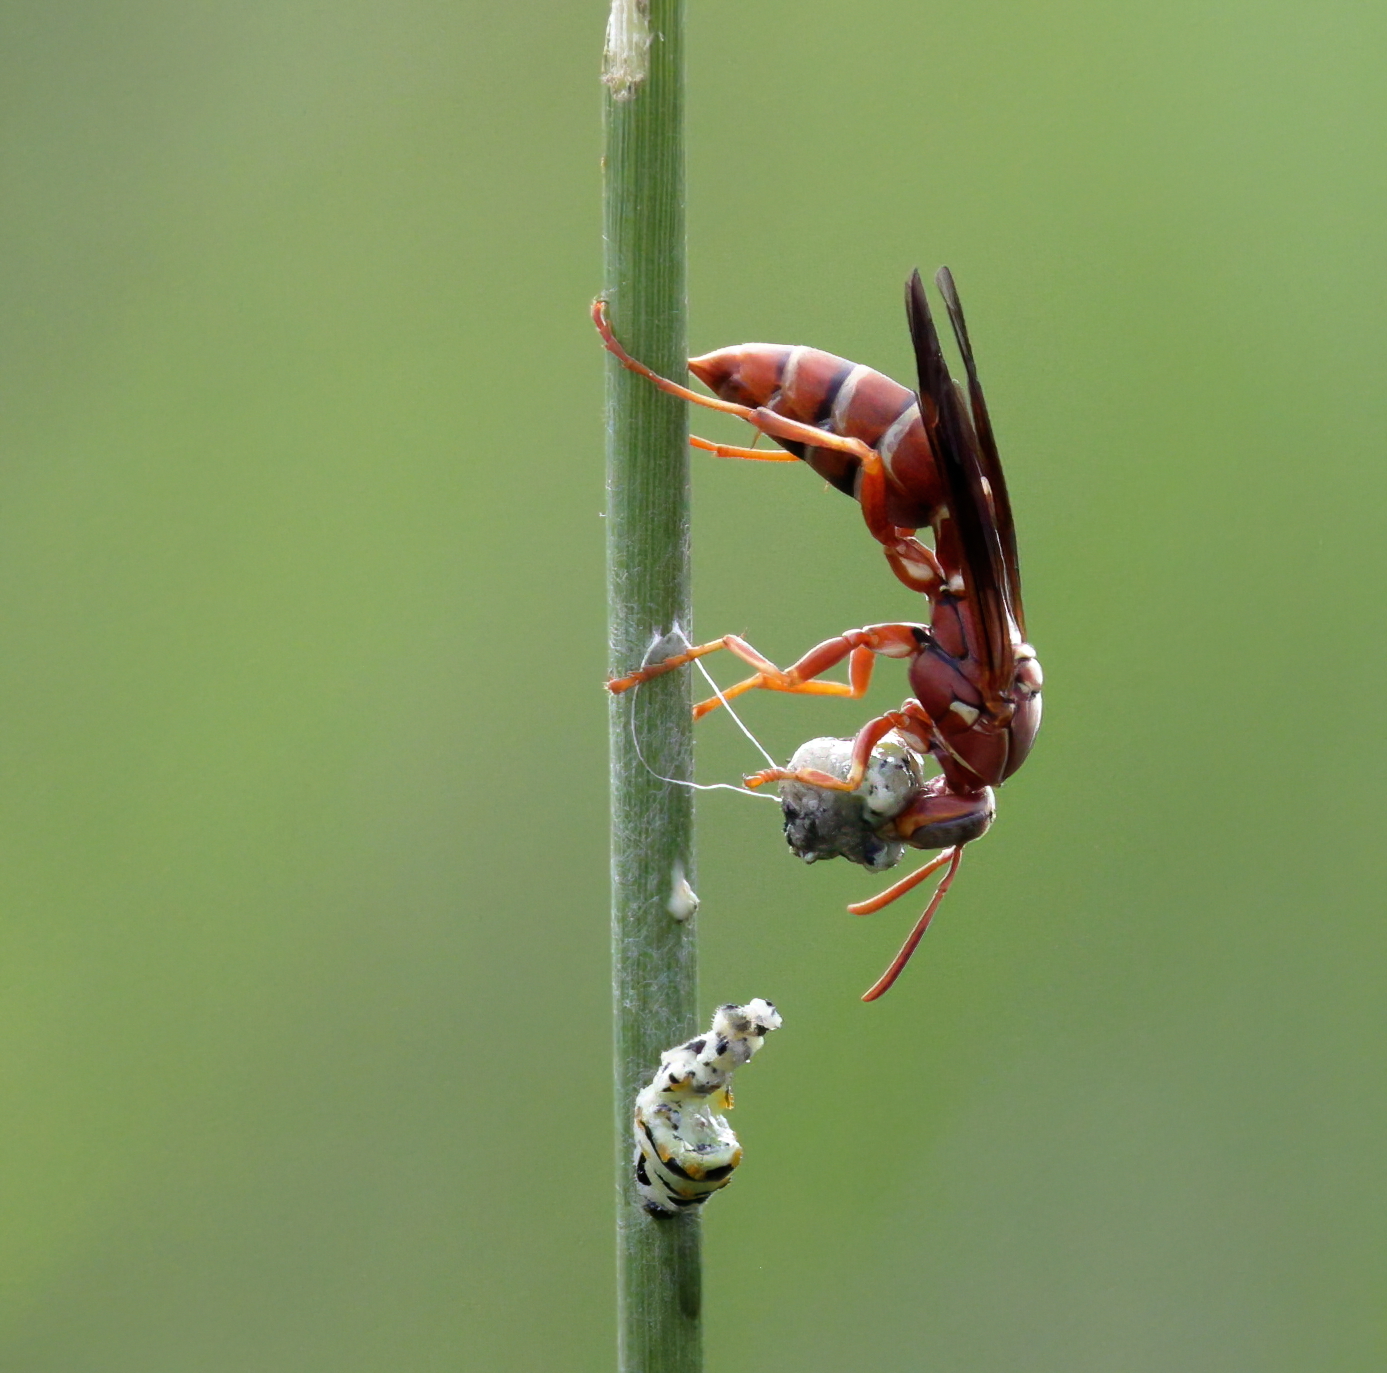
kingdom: Animalia
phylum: Arthropoda
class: Insecta
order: Hymenoptera
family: Eumenidae
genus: Polistes
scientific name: Polistes bellicosus
